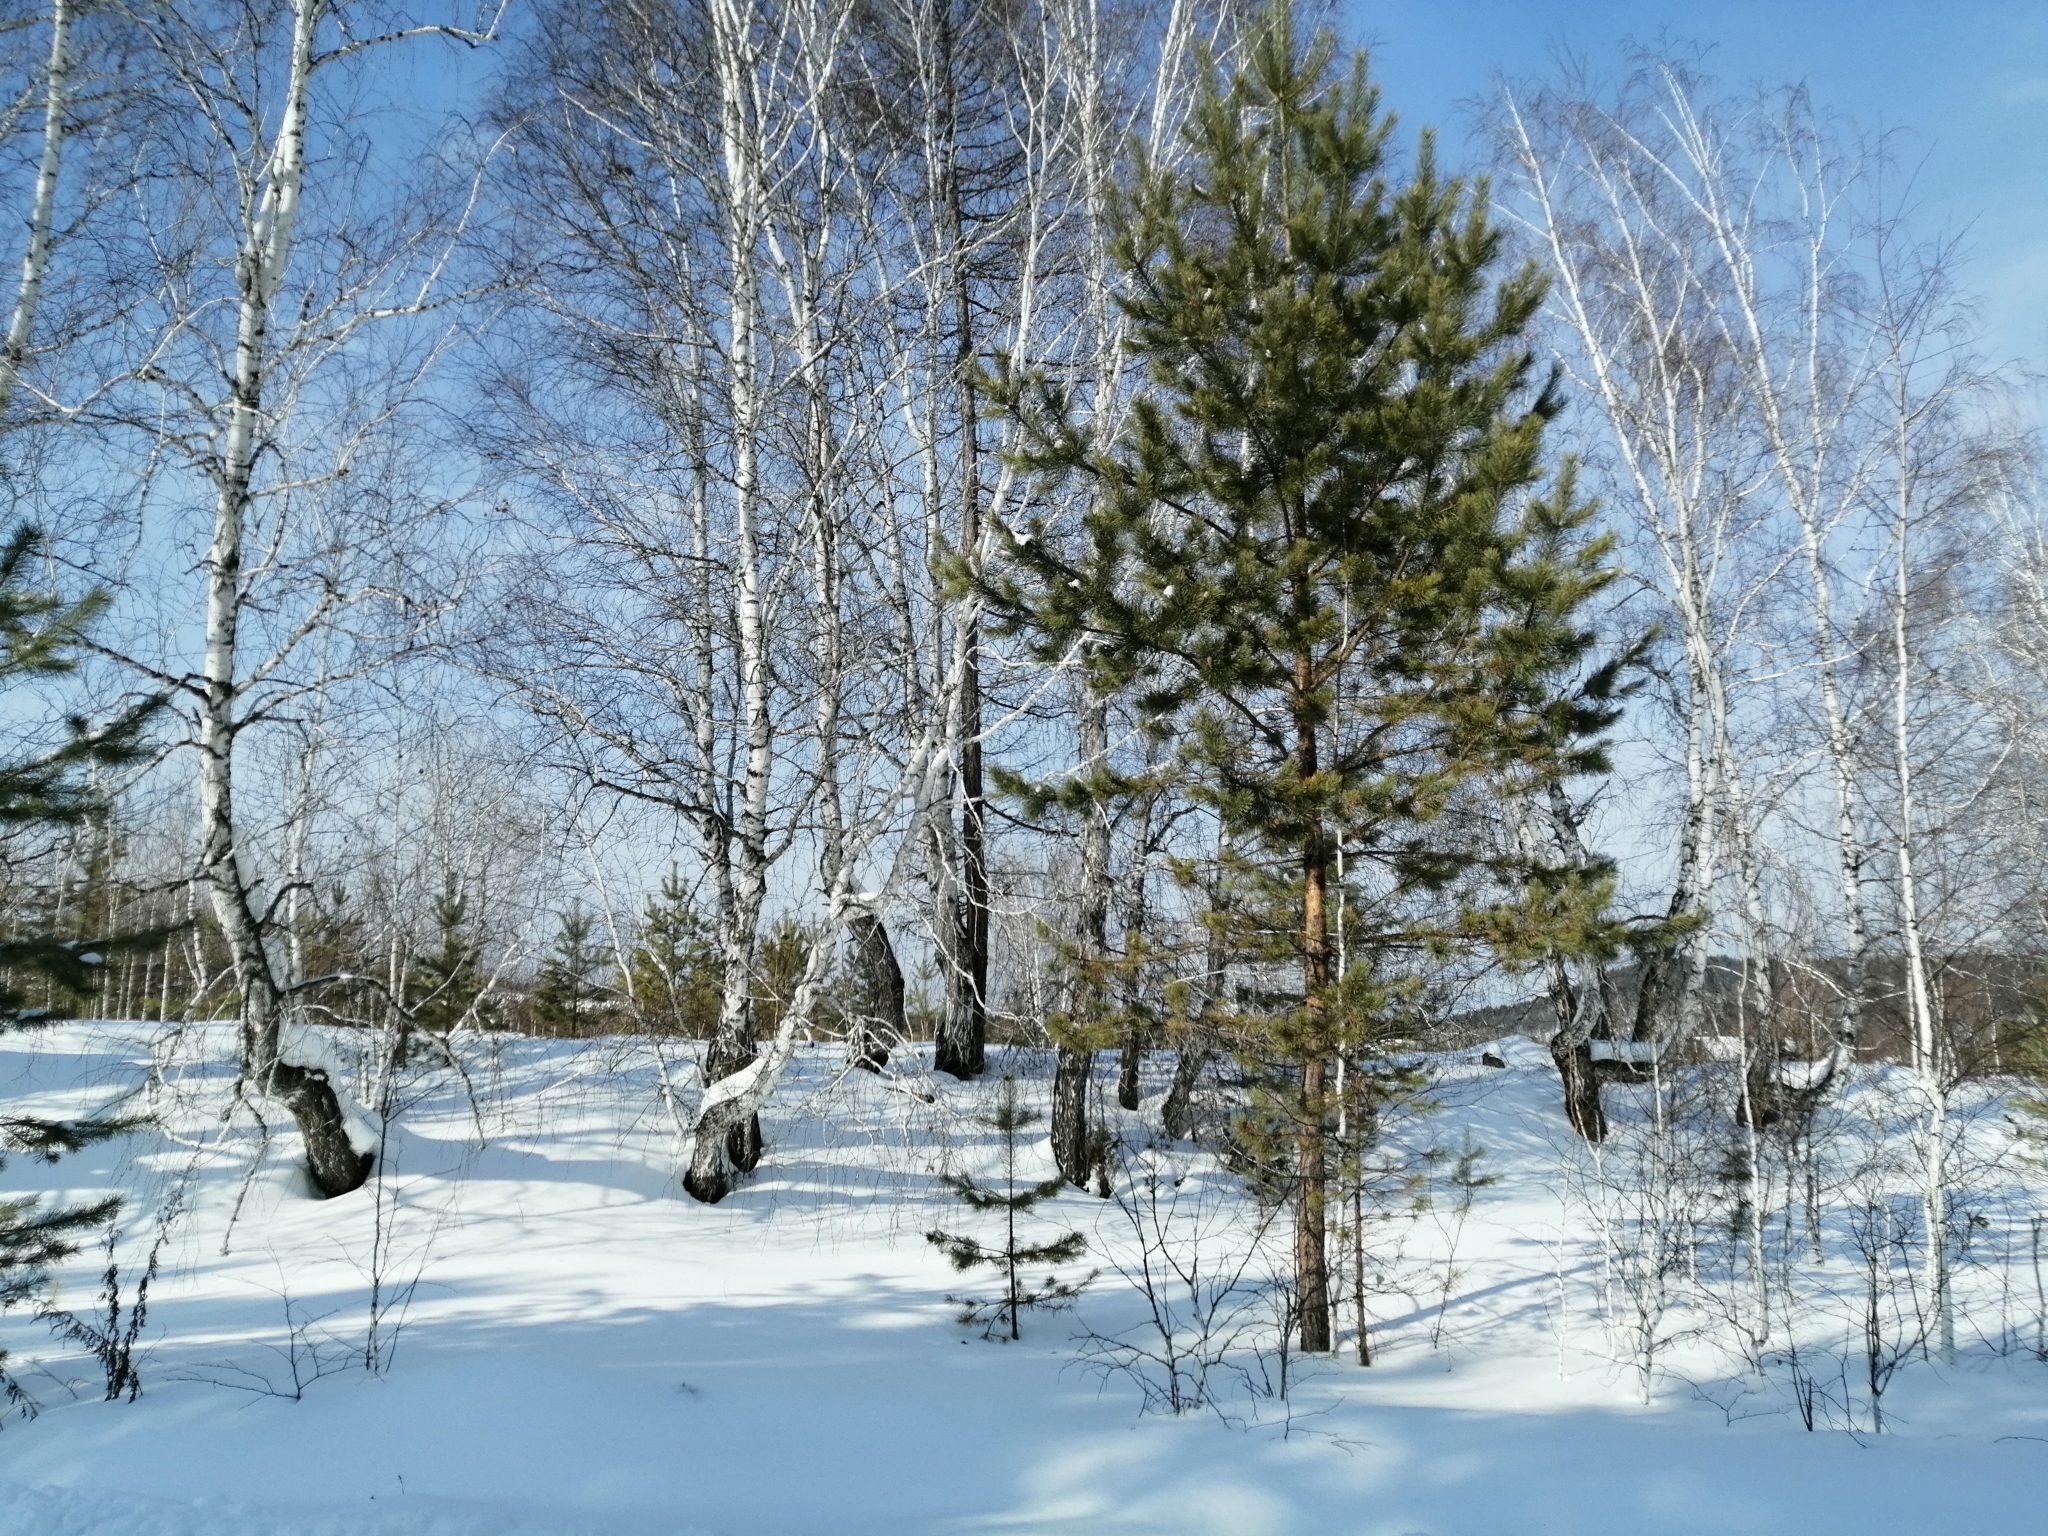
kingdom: Plantae
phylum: Tracheophyta
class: Pinopsida
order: Pinales
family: Pinaceae
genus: Pinus
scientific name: Pinus sylvestris
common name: Scots pine
